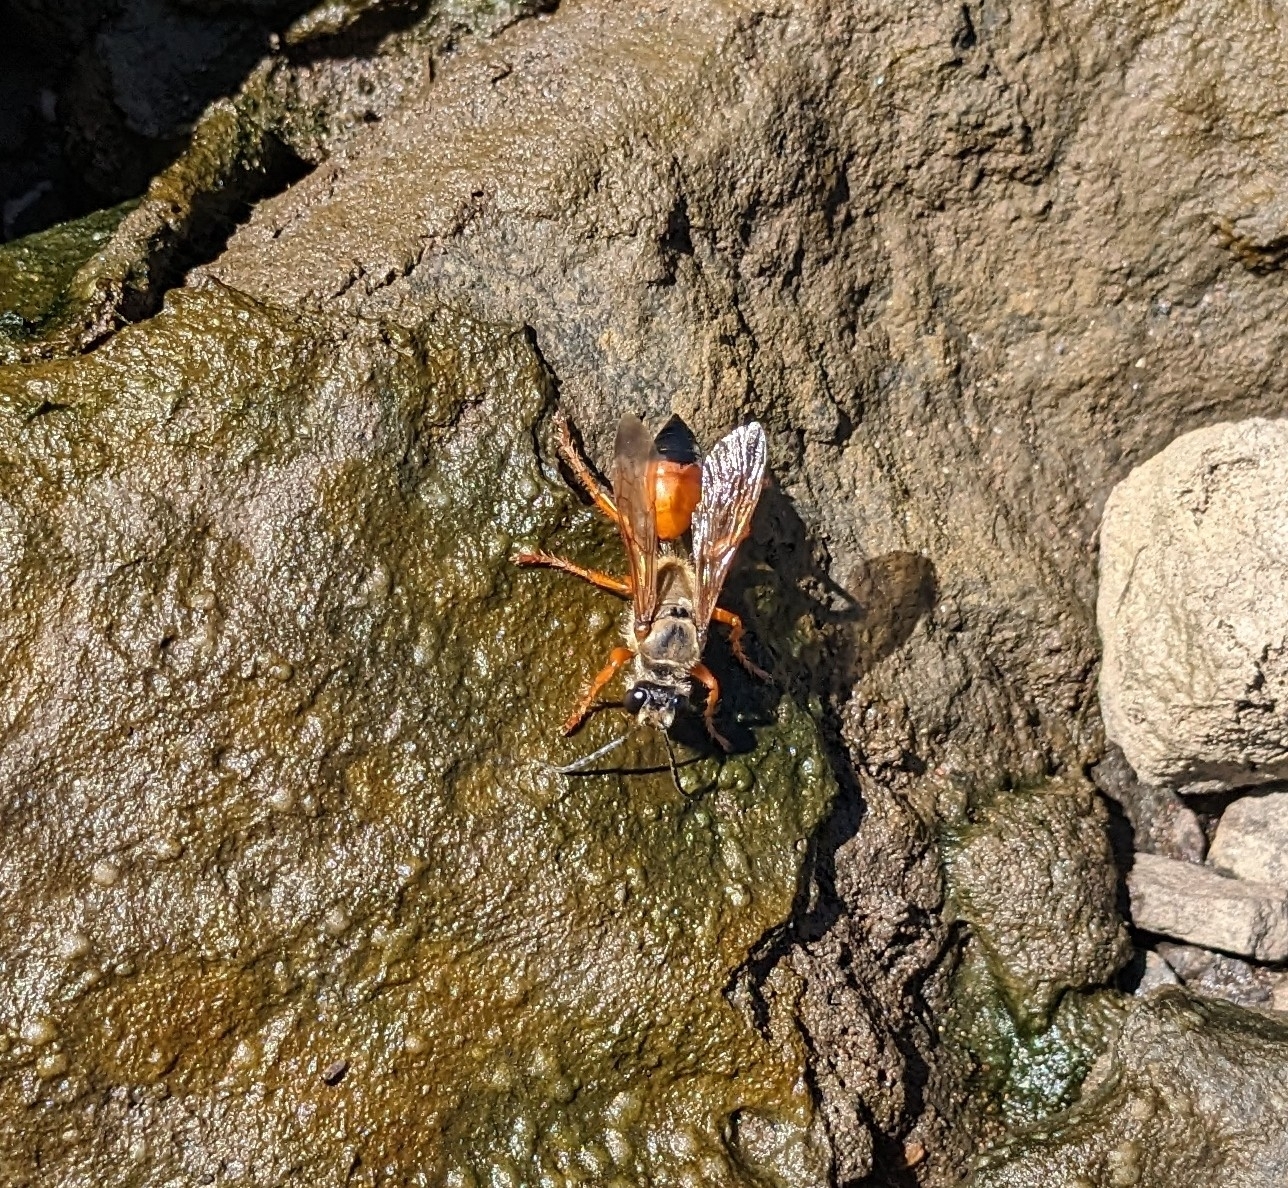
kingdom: Animalia
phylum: Arthropoda
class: Insecta
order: Hymenoptera
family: Sphecidae
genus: Sphex
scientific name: Sphex ichneumoneus
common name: Great golden digger wasp
